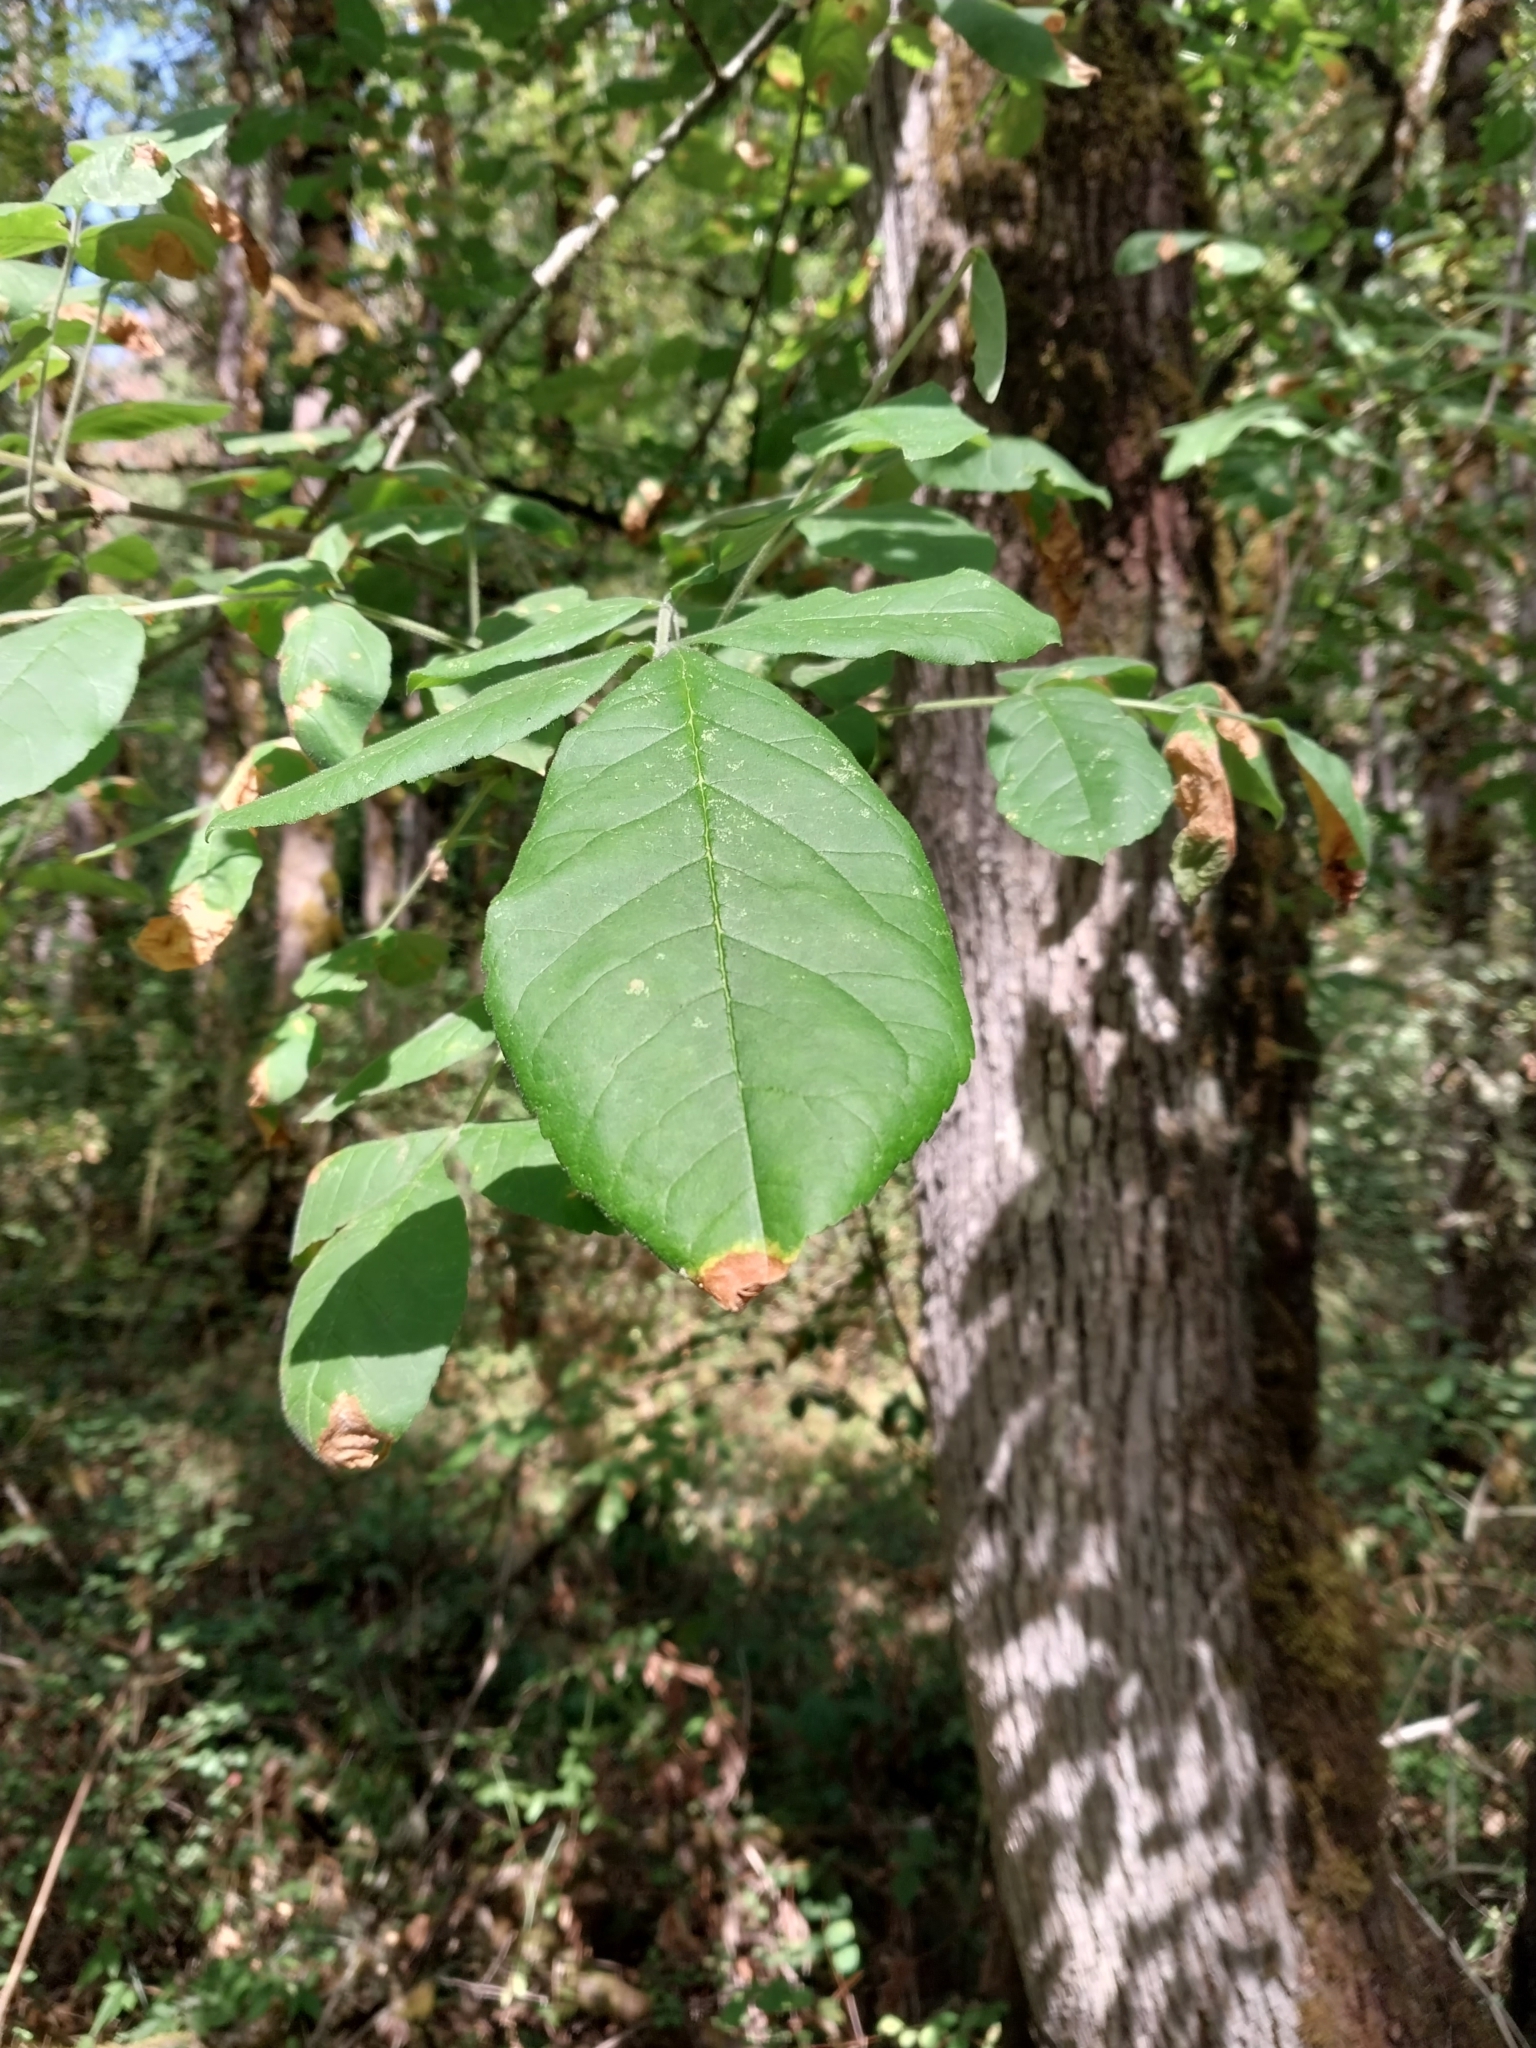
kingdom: Plantae
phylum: Tracheophyta
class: Magnoliopsida
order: Lamiales
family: Oleaceae
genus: Fraxinus
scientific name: Fraxinus latifolia
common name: Oregon ash
